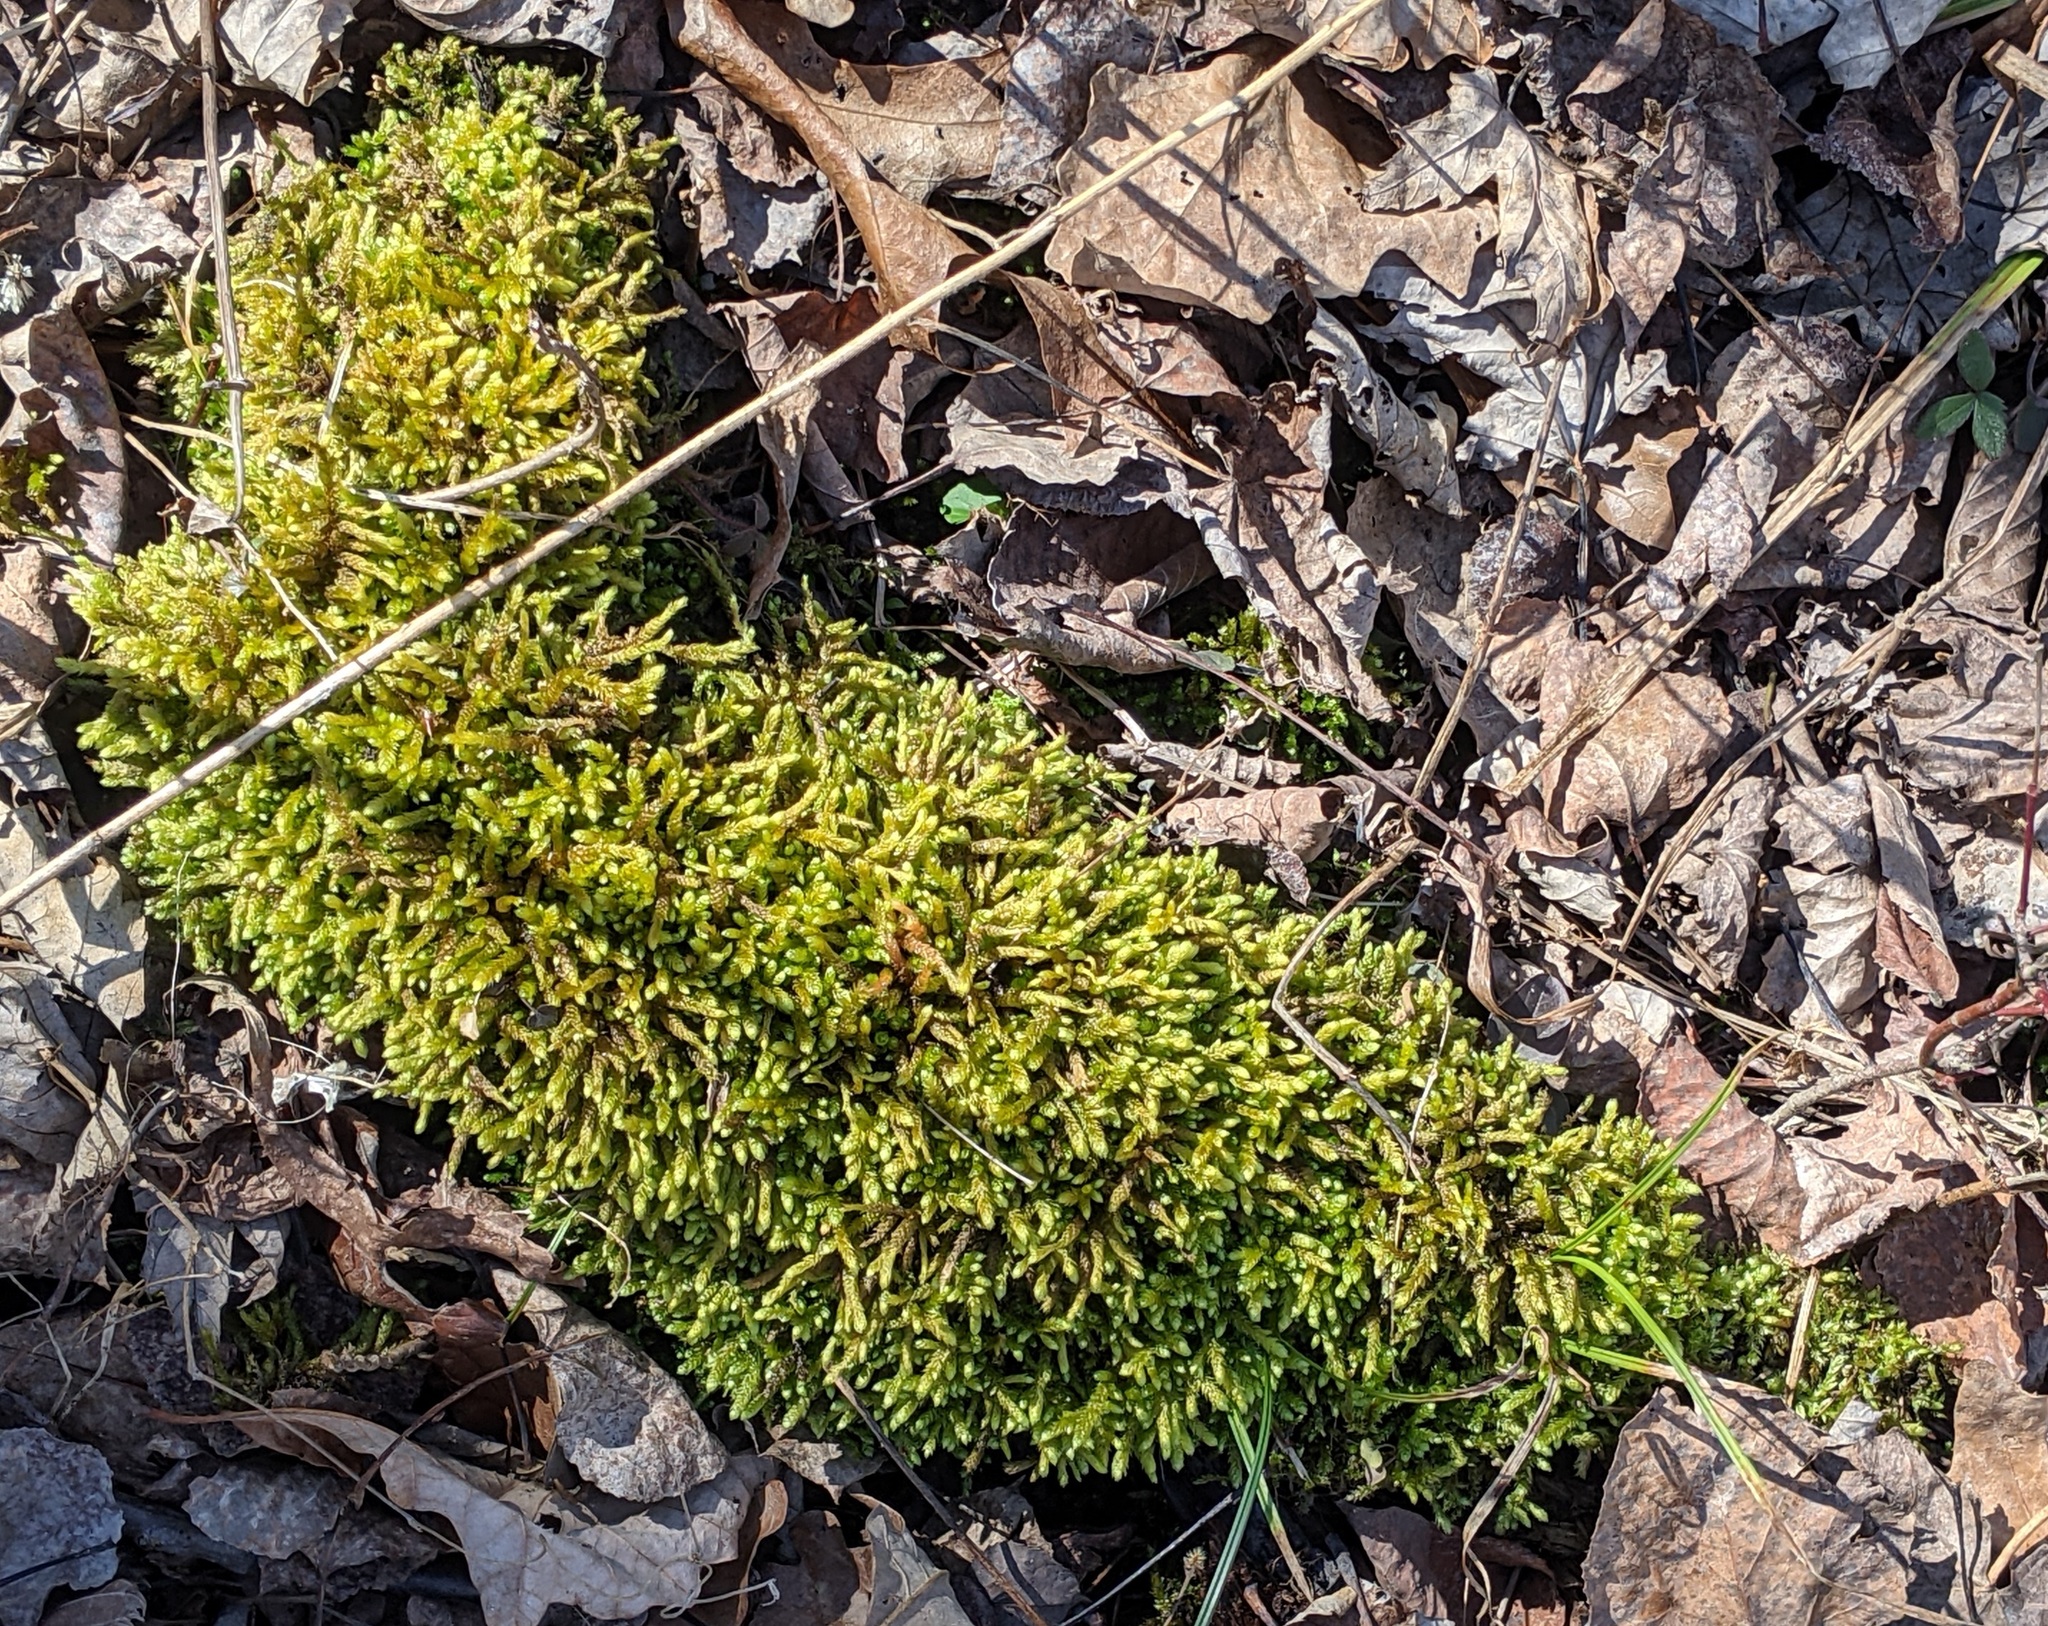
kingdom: Plantae
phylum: Bryophyta
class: Bryopsida
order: Hypnales
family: Brachytheciaceae
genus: Bryoandersonia
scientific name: Bryoandersonia illecebra
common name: Spoon-leaved moss
